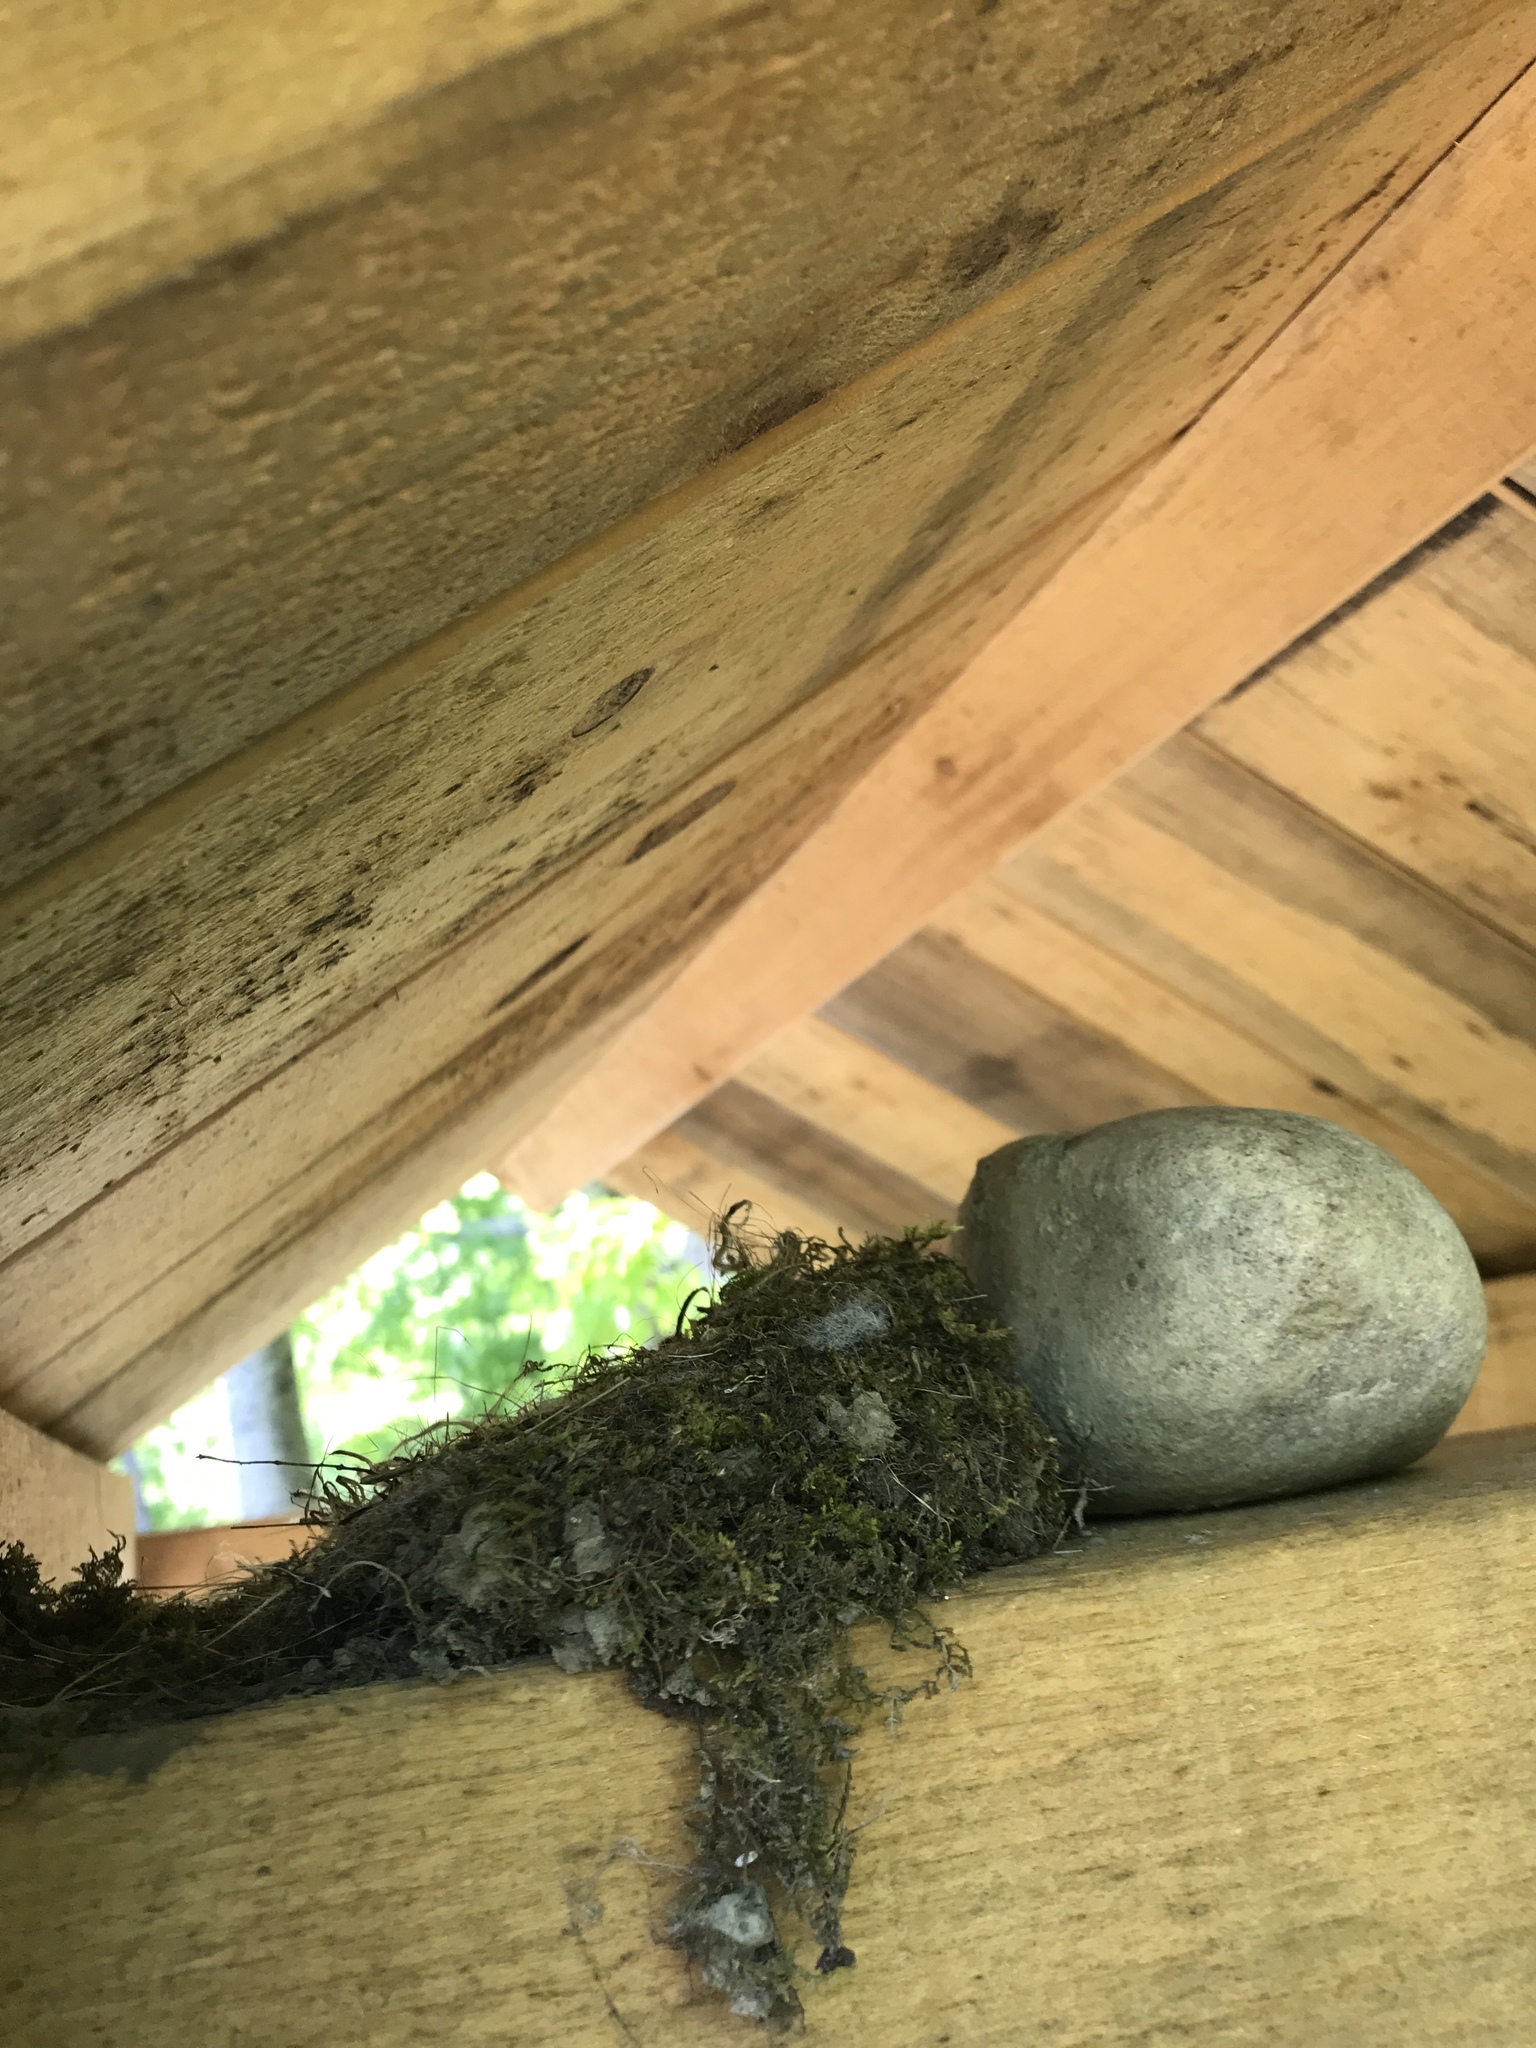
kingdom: Animalia
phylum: Chordata
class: Aves
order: Passeriformes
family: Tyrannidae
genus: Sayornis
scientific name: Sayornis phoebe
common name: Eastern phoebe
